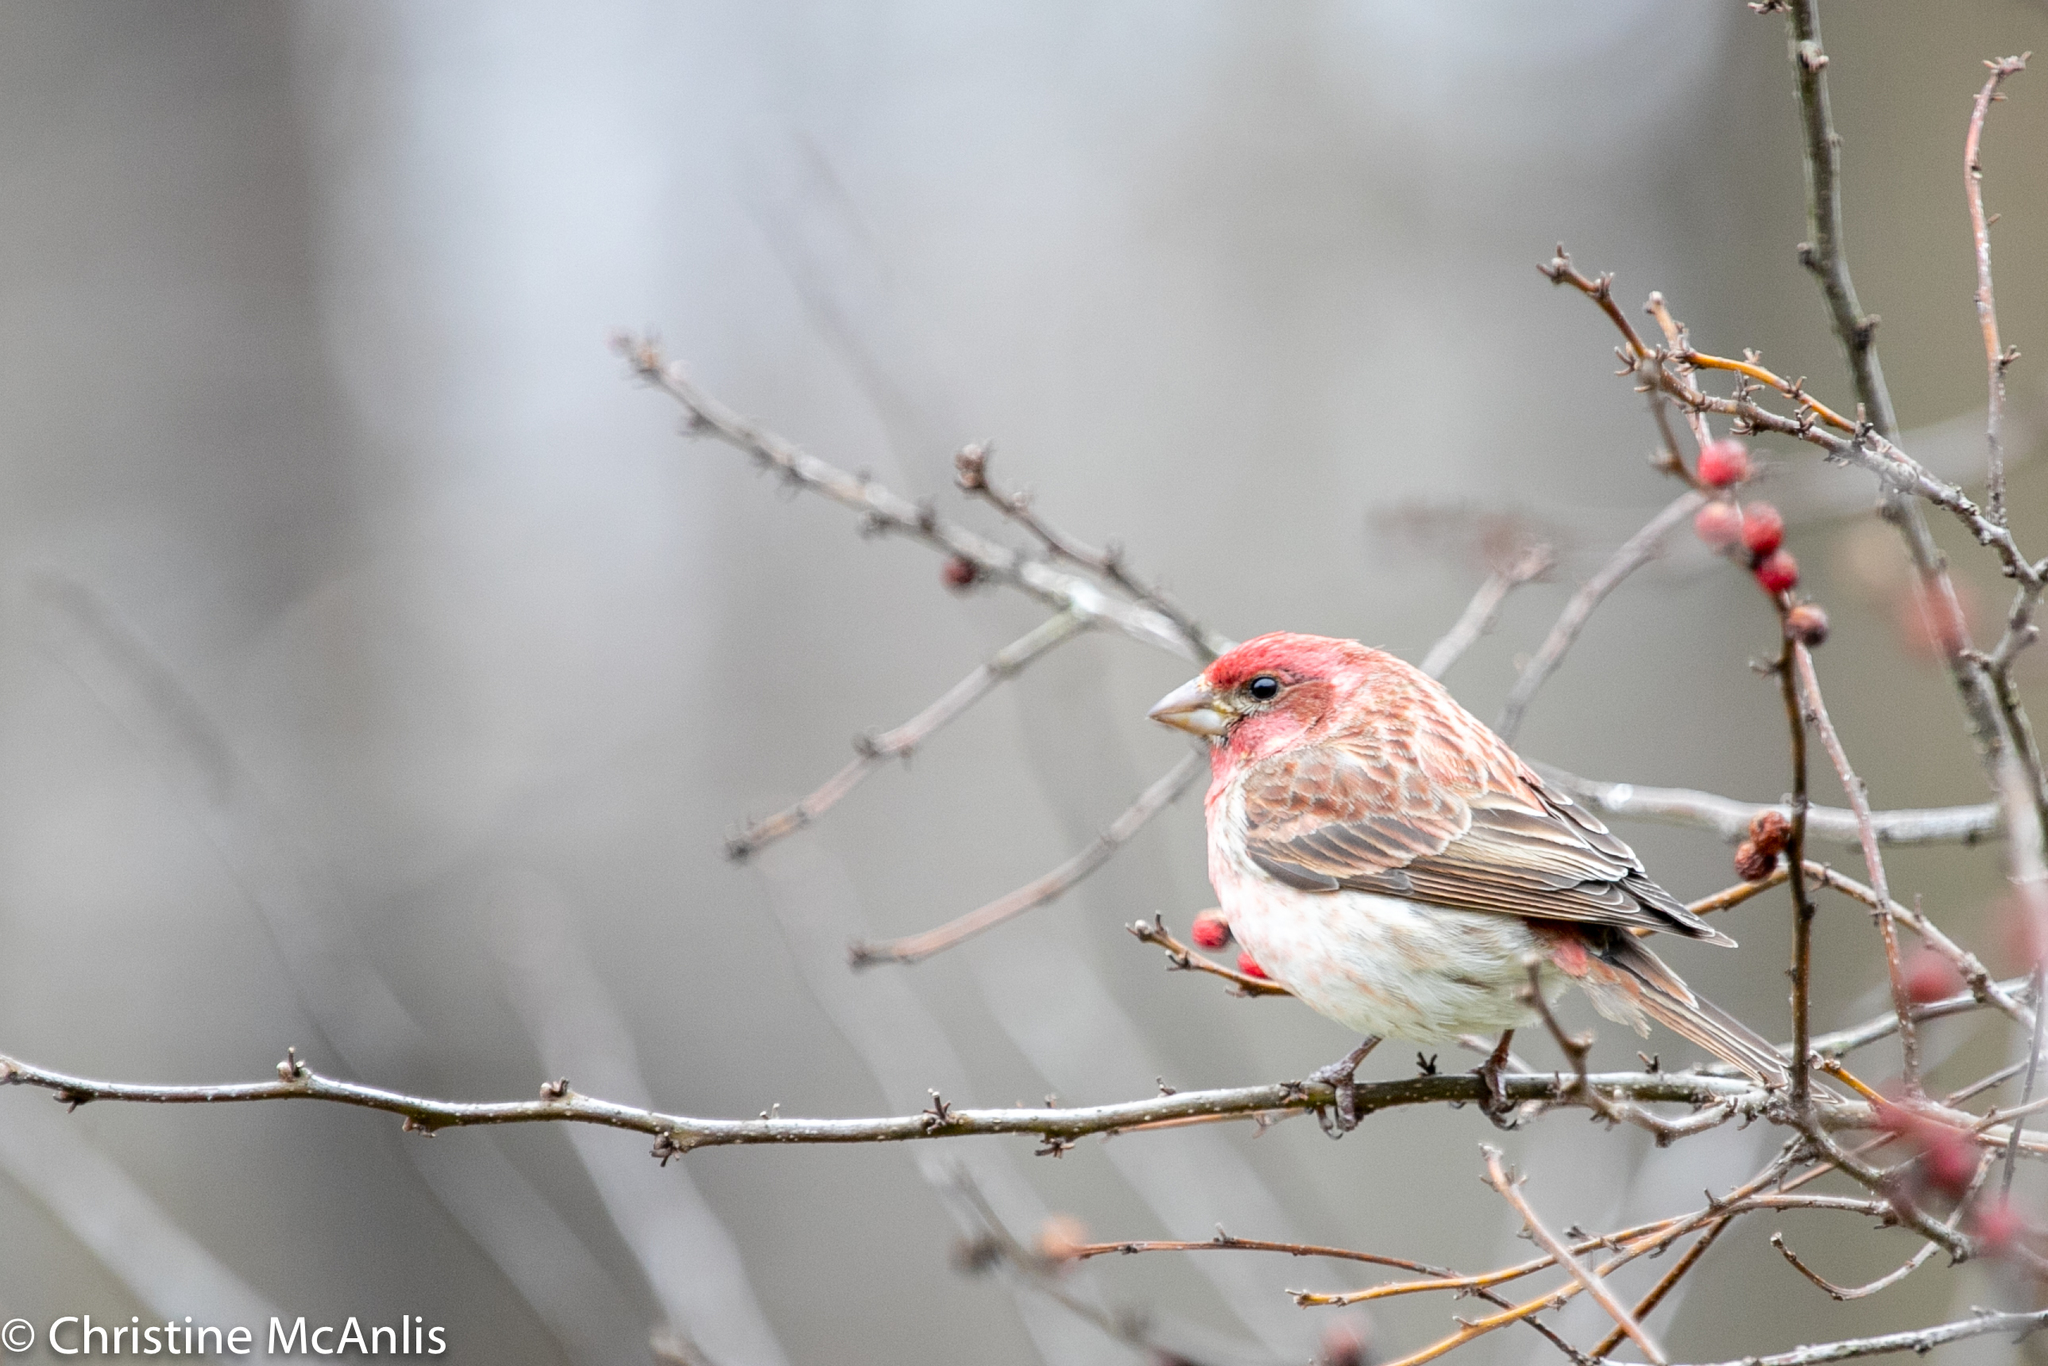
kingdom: Animalia
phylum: Chordata
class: Aves
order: Passeriformes
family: Fringillidae
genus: Haemorhous
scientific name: Haemorhous purpureus
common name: Purple finch
